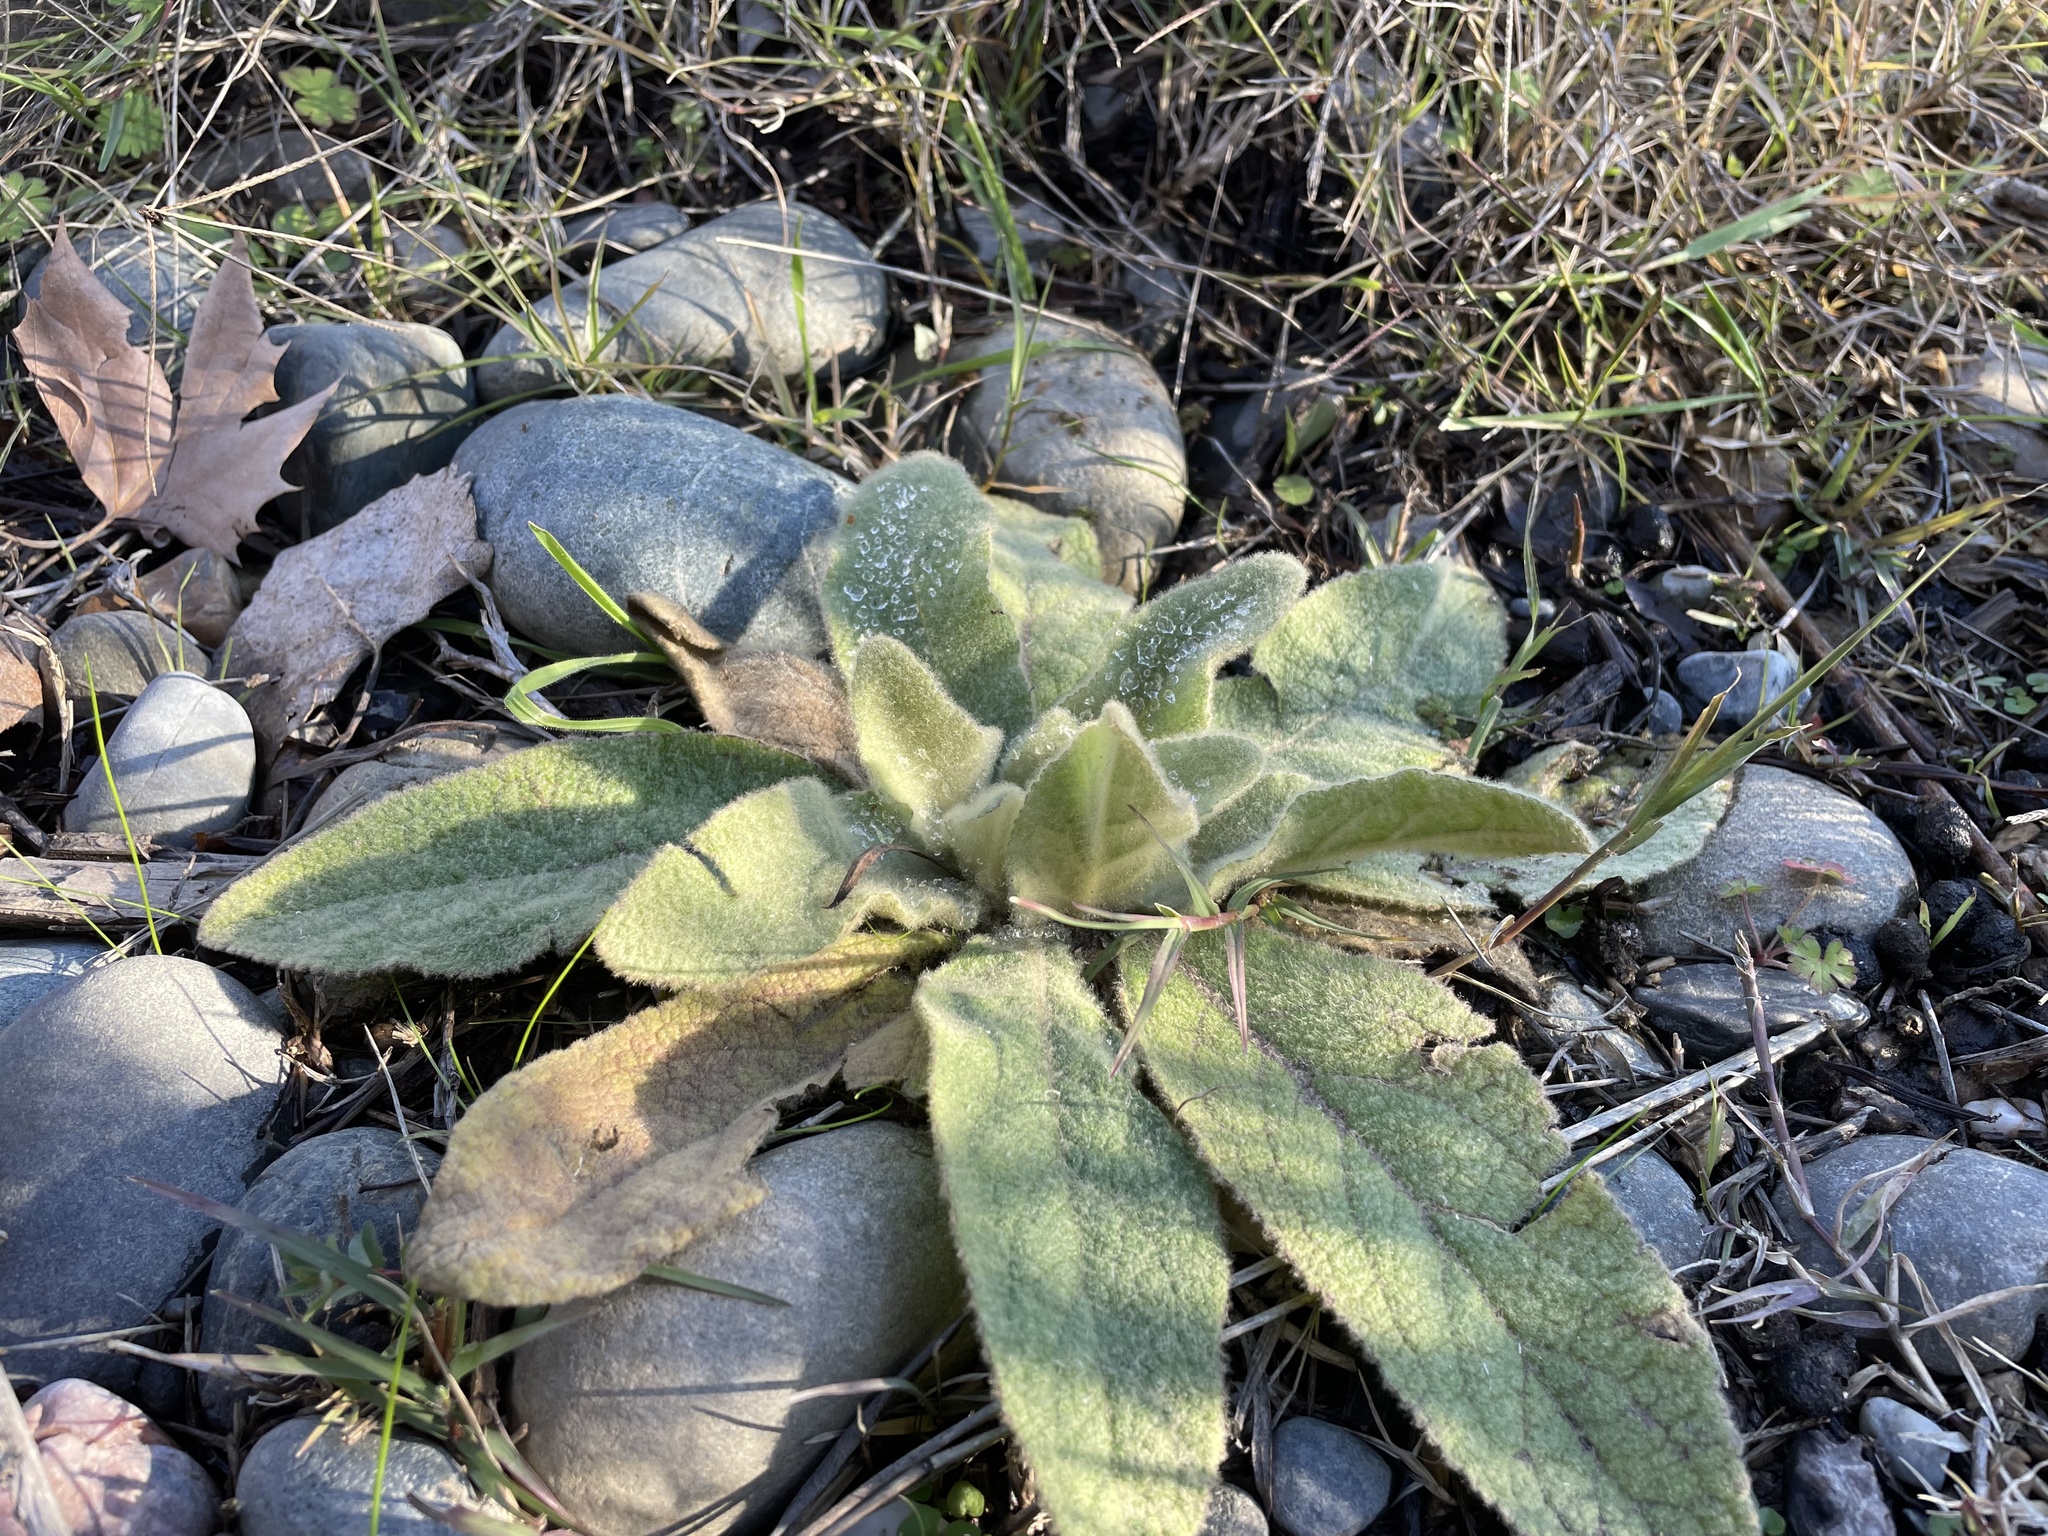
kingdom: Plantae
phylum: Tracheophyta
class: Magnoliopsida
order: Lamiales
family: Scrophulariaceae
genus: Verbascum
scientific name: Verbascum thapsus
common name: Common mullein
